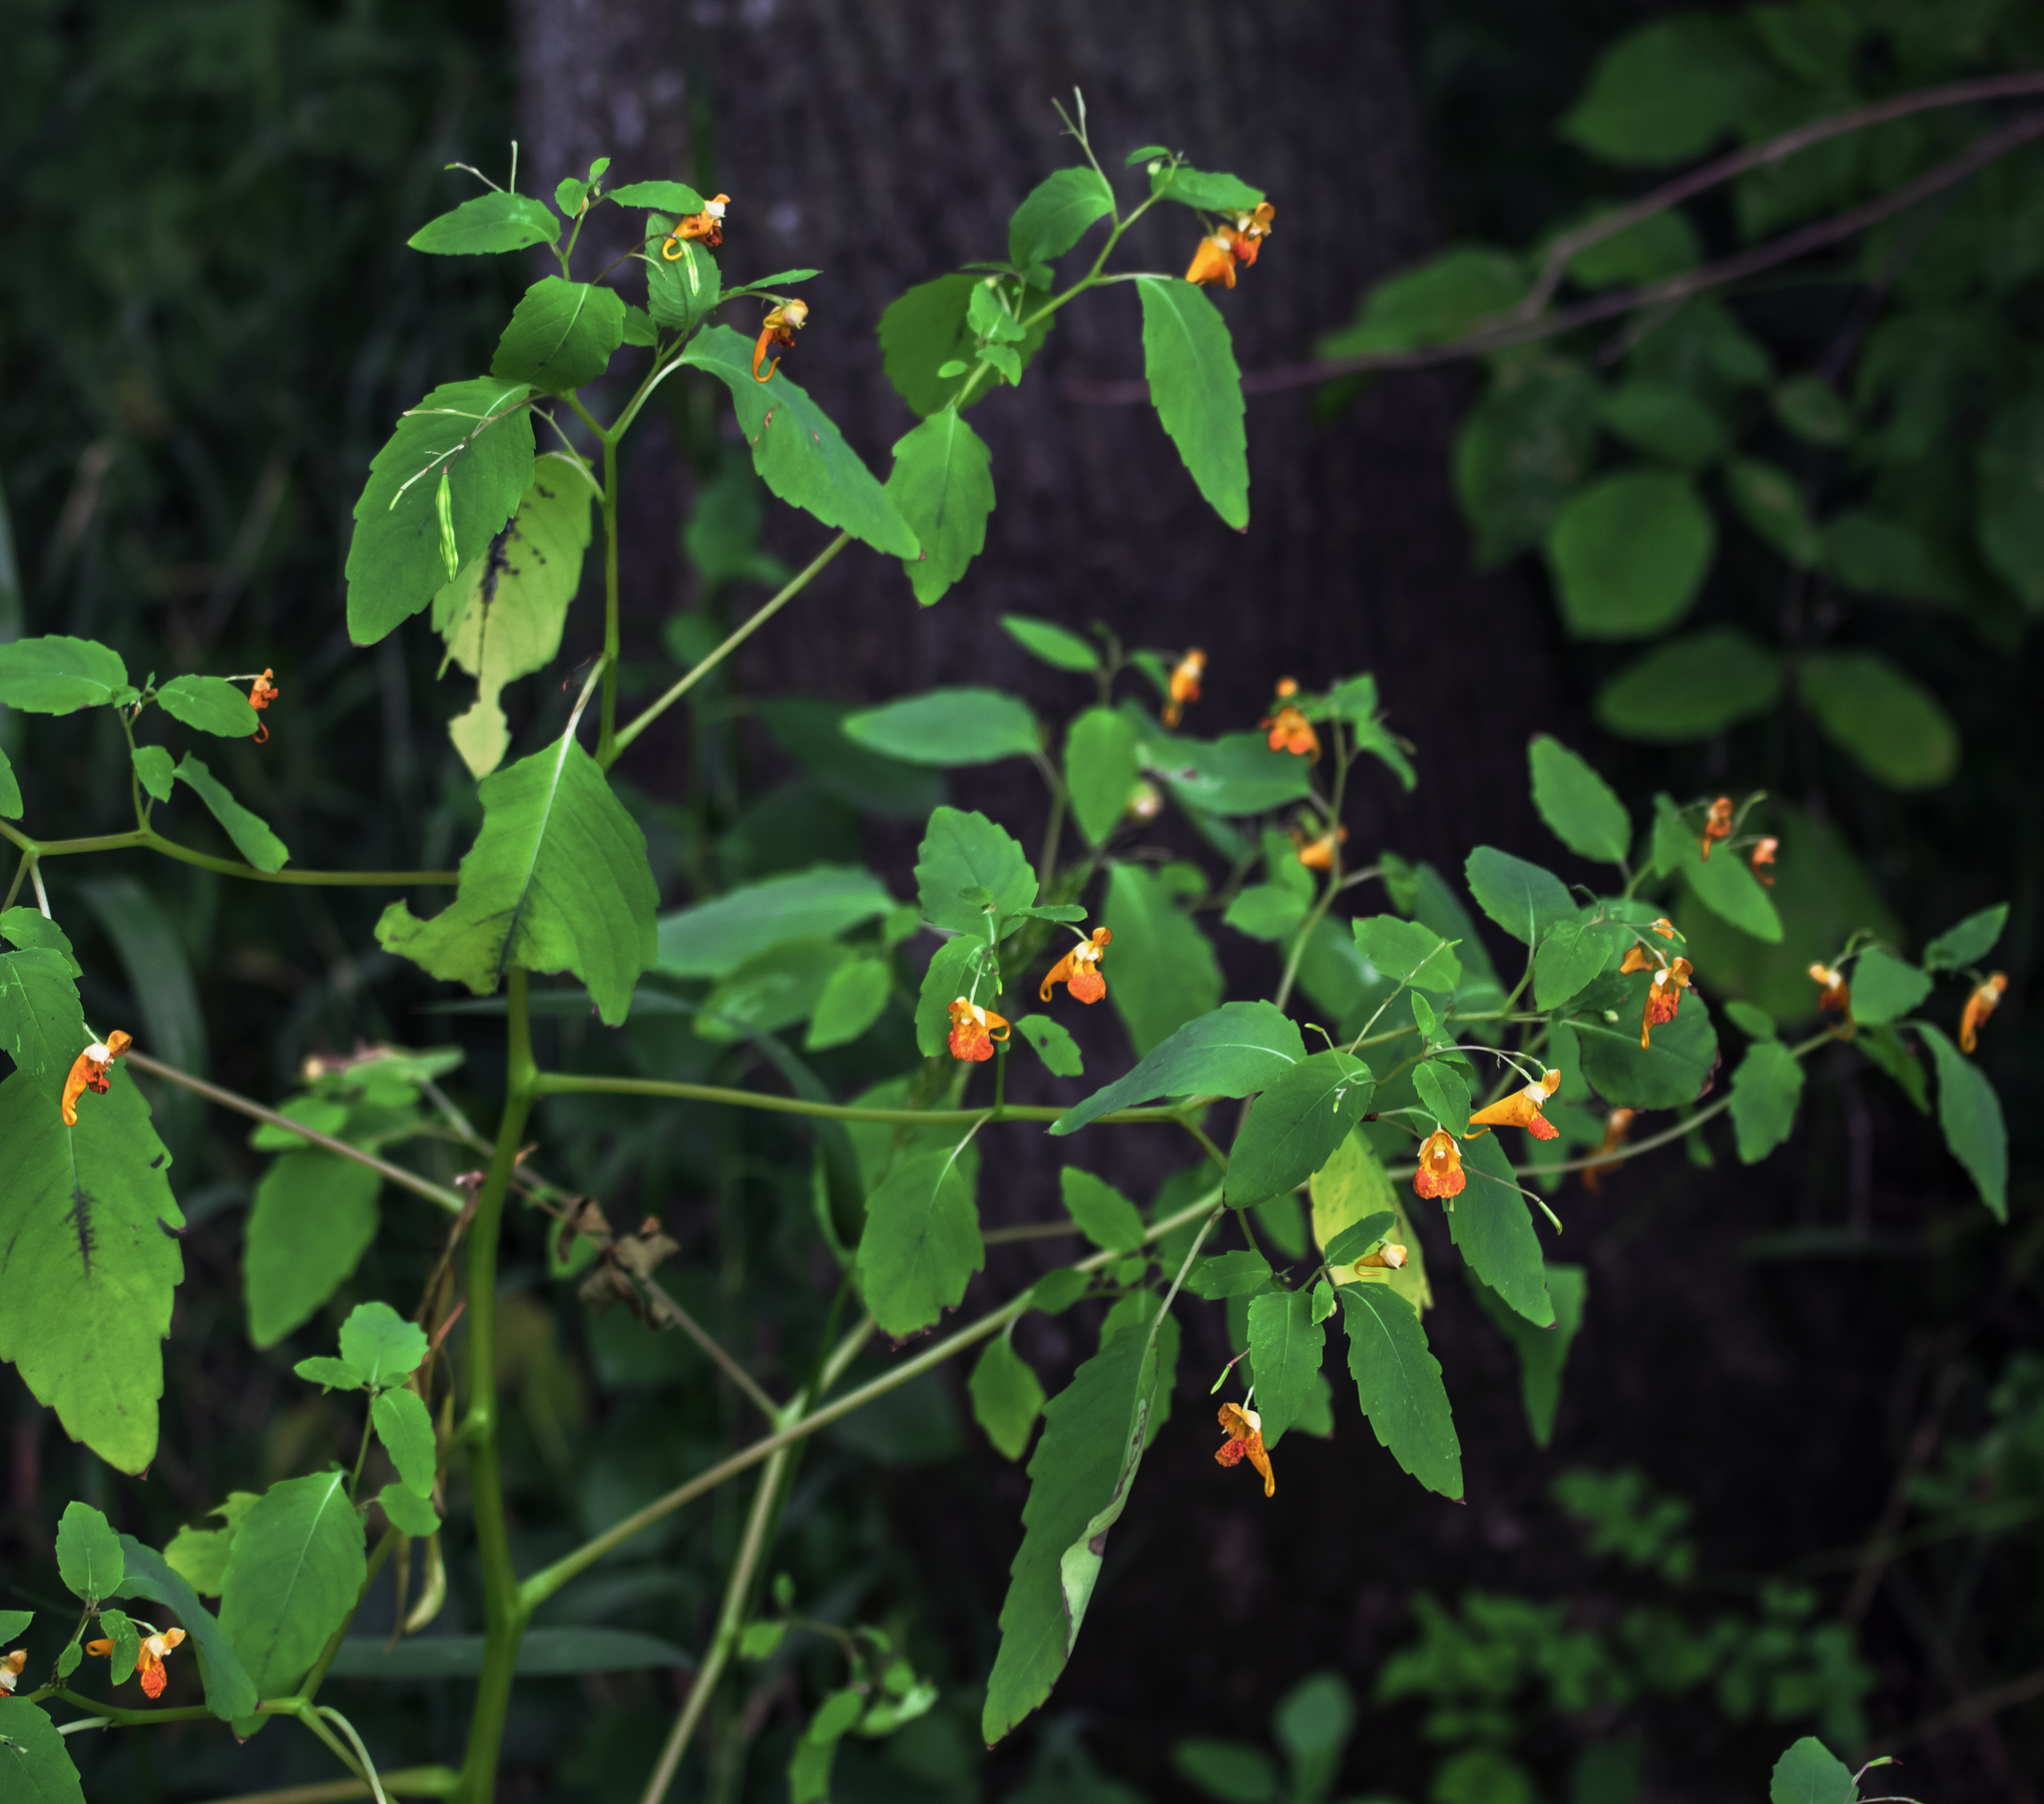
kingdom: Plantae
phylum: Tracheophyta
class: Magnoliopsida
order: Ericales
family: Balsaminaceae
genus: Impatiens
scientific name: Impatiens capensis
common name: Orange balsam
